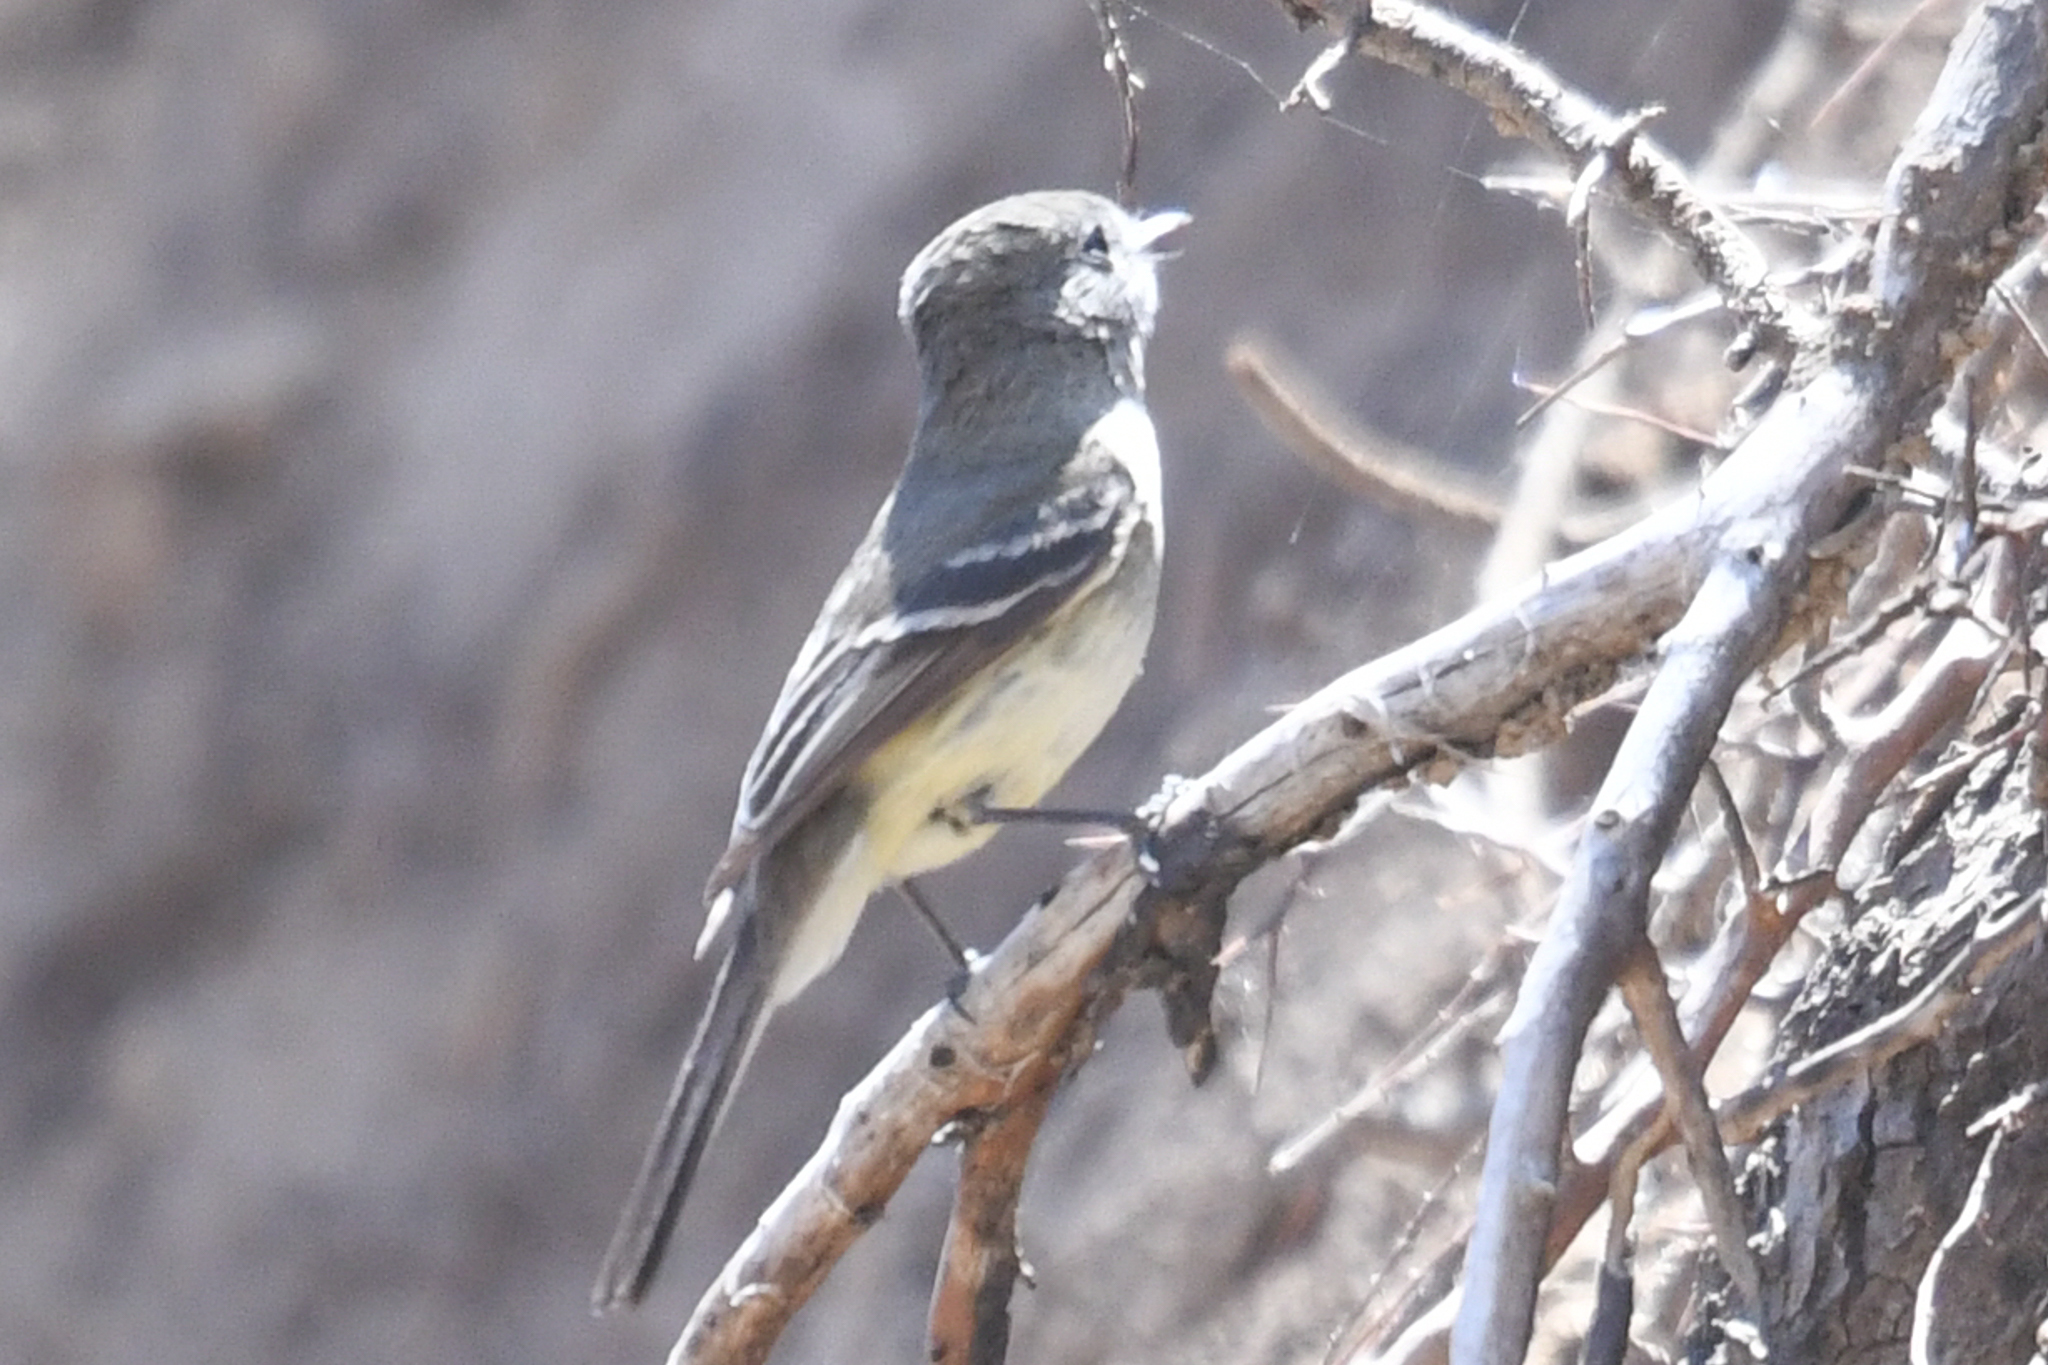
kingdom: Animalia
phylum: Chordata
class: Aves
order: Passeriformes
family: Tyrannidae
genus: Empidonax
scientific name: Empidonax oberholseri
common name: Dusky flycatcher
